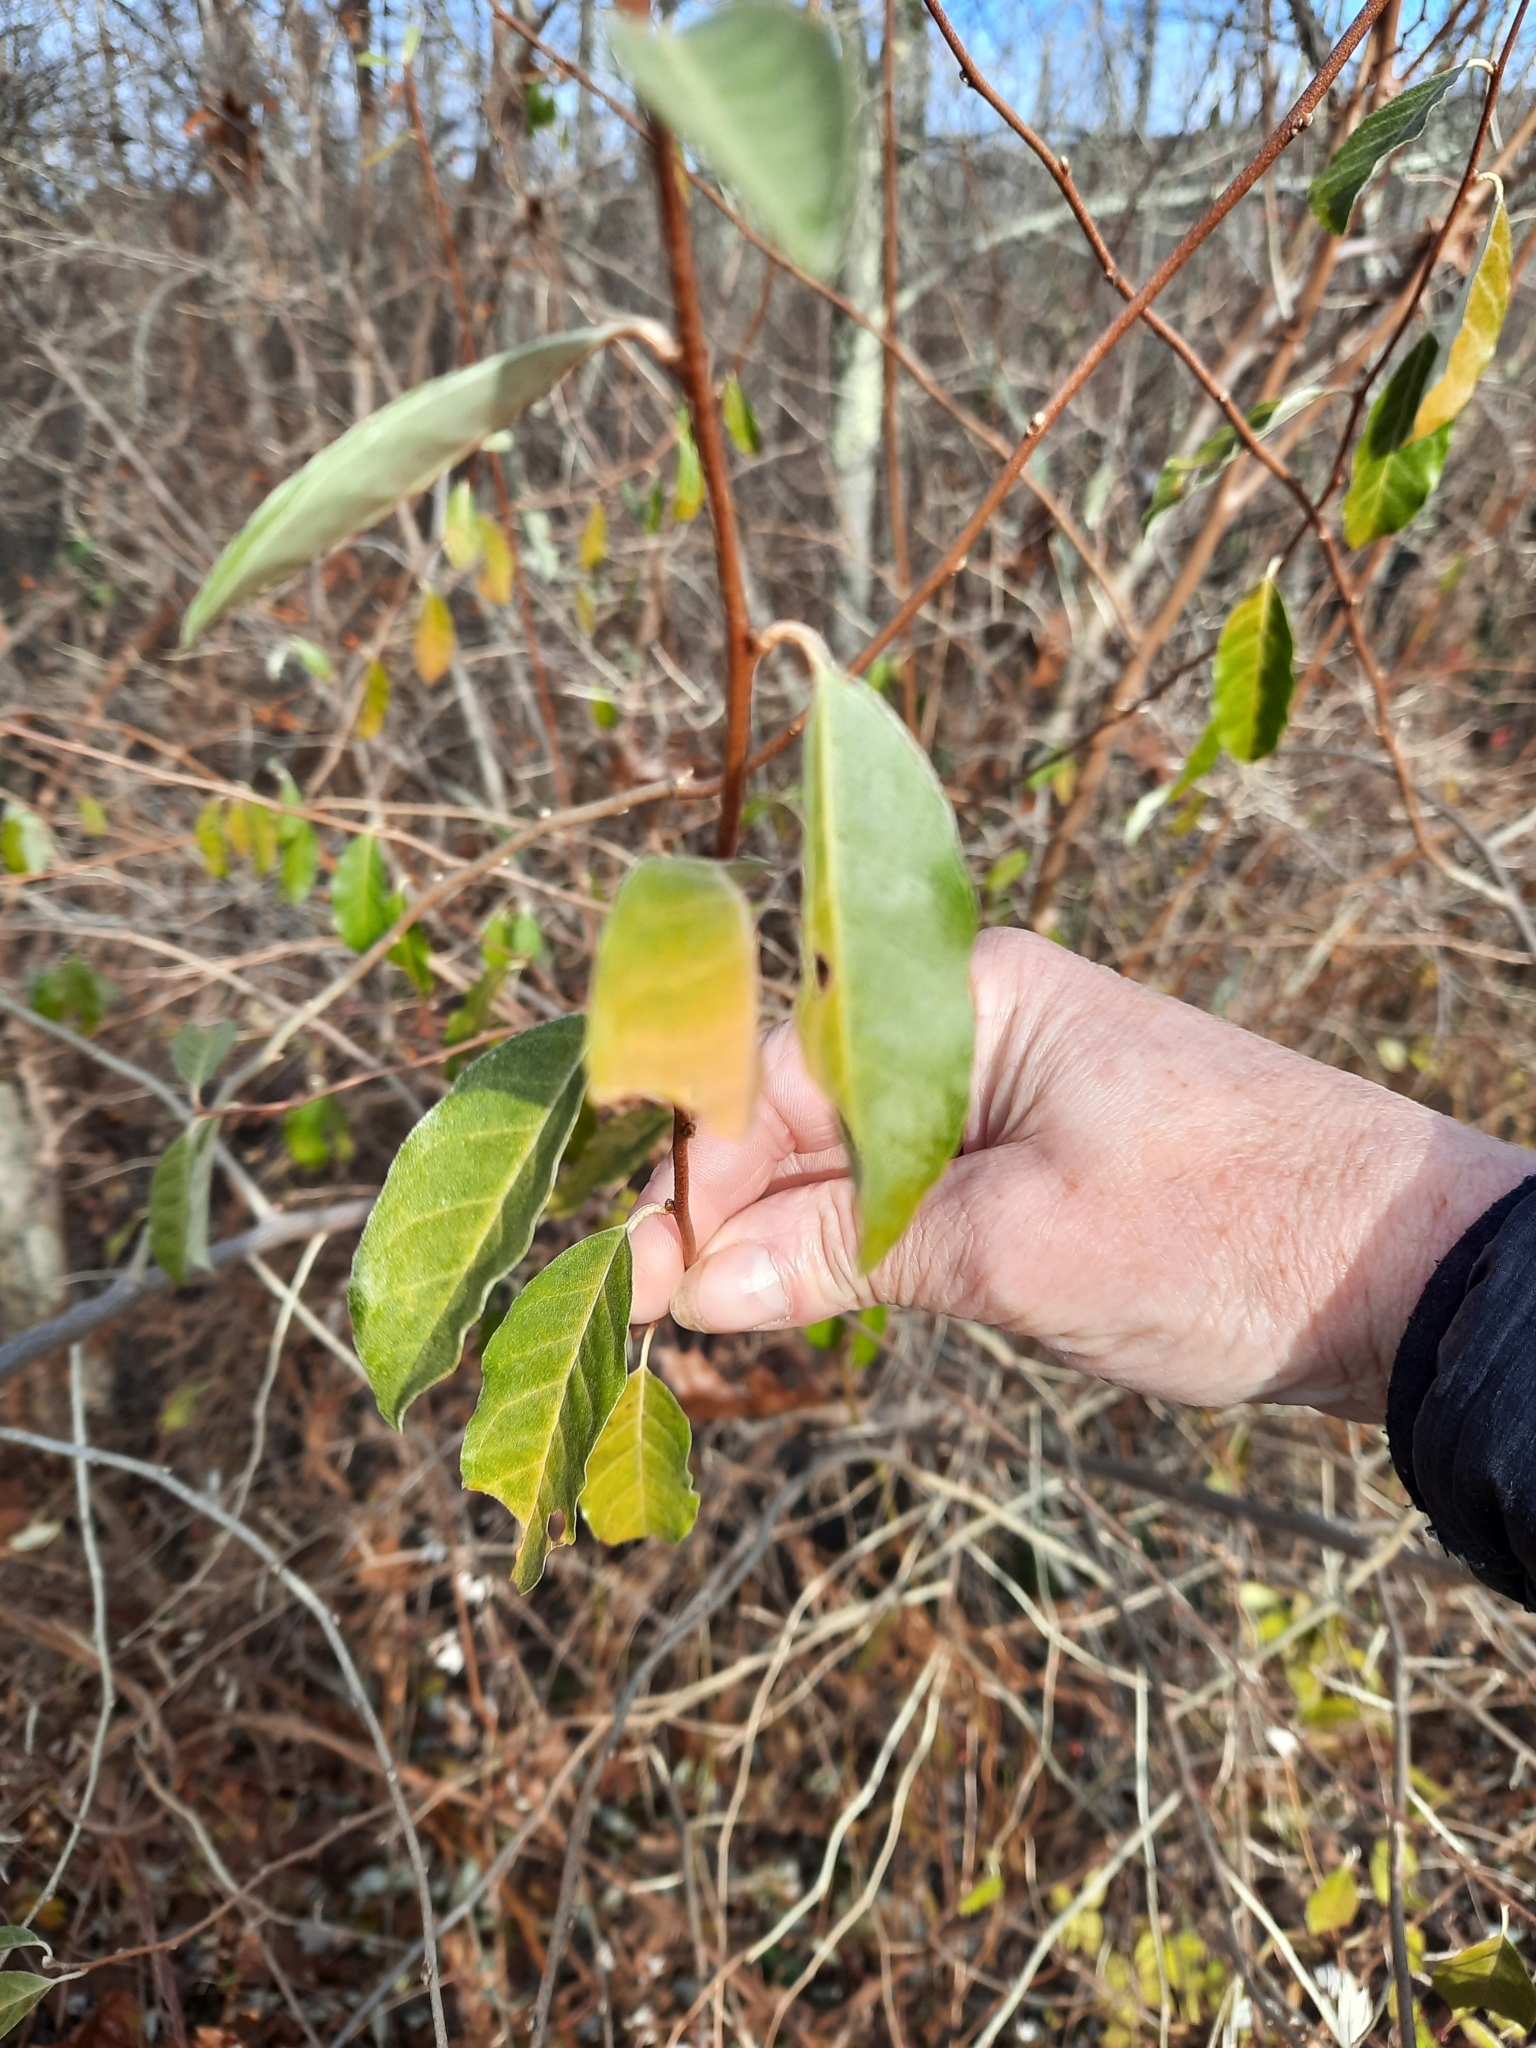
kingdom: Plantae
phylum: Tracheophyta
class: Magnoliopsida
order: Rosales
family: Elaeagnaceae
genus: Elaeagnus
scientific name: Elaeagnus umbellata
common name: Autumn olive
